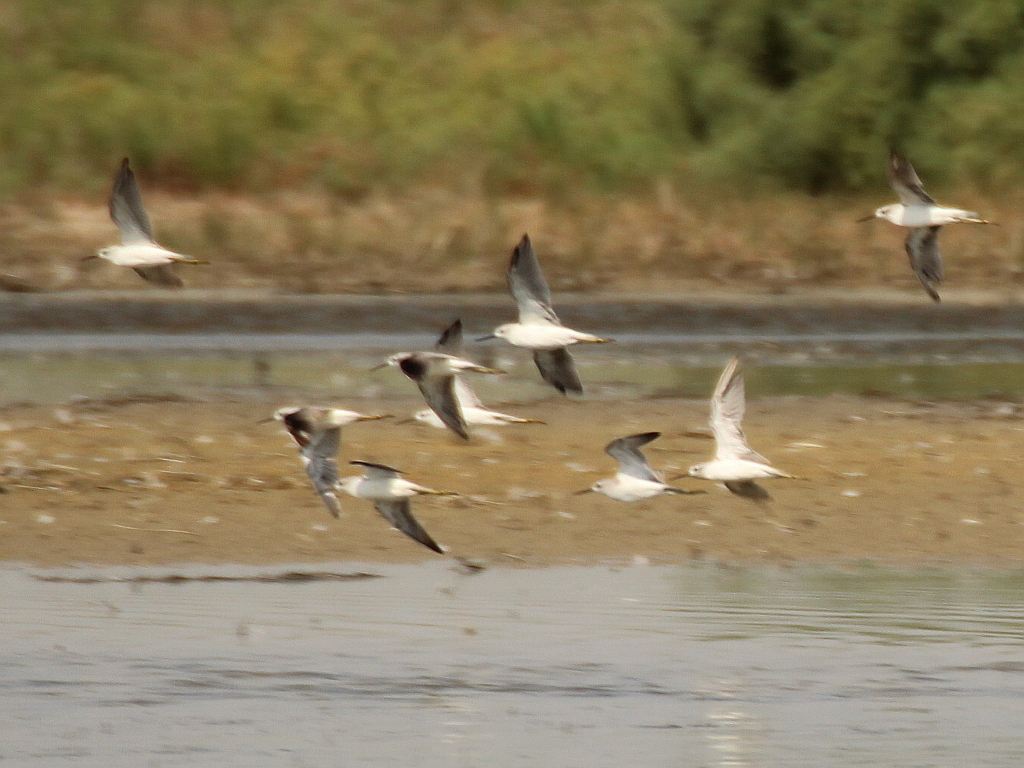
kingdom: Animalia
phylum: Chordata
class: Aves
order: Charadriiformes
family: Scolopacidae
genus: Tringa
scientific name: Tringa stagnatilis
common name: Marsh sandpiper
